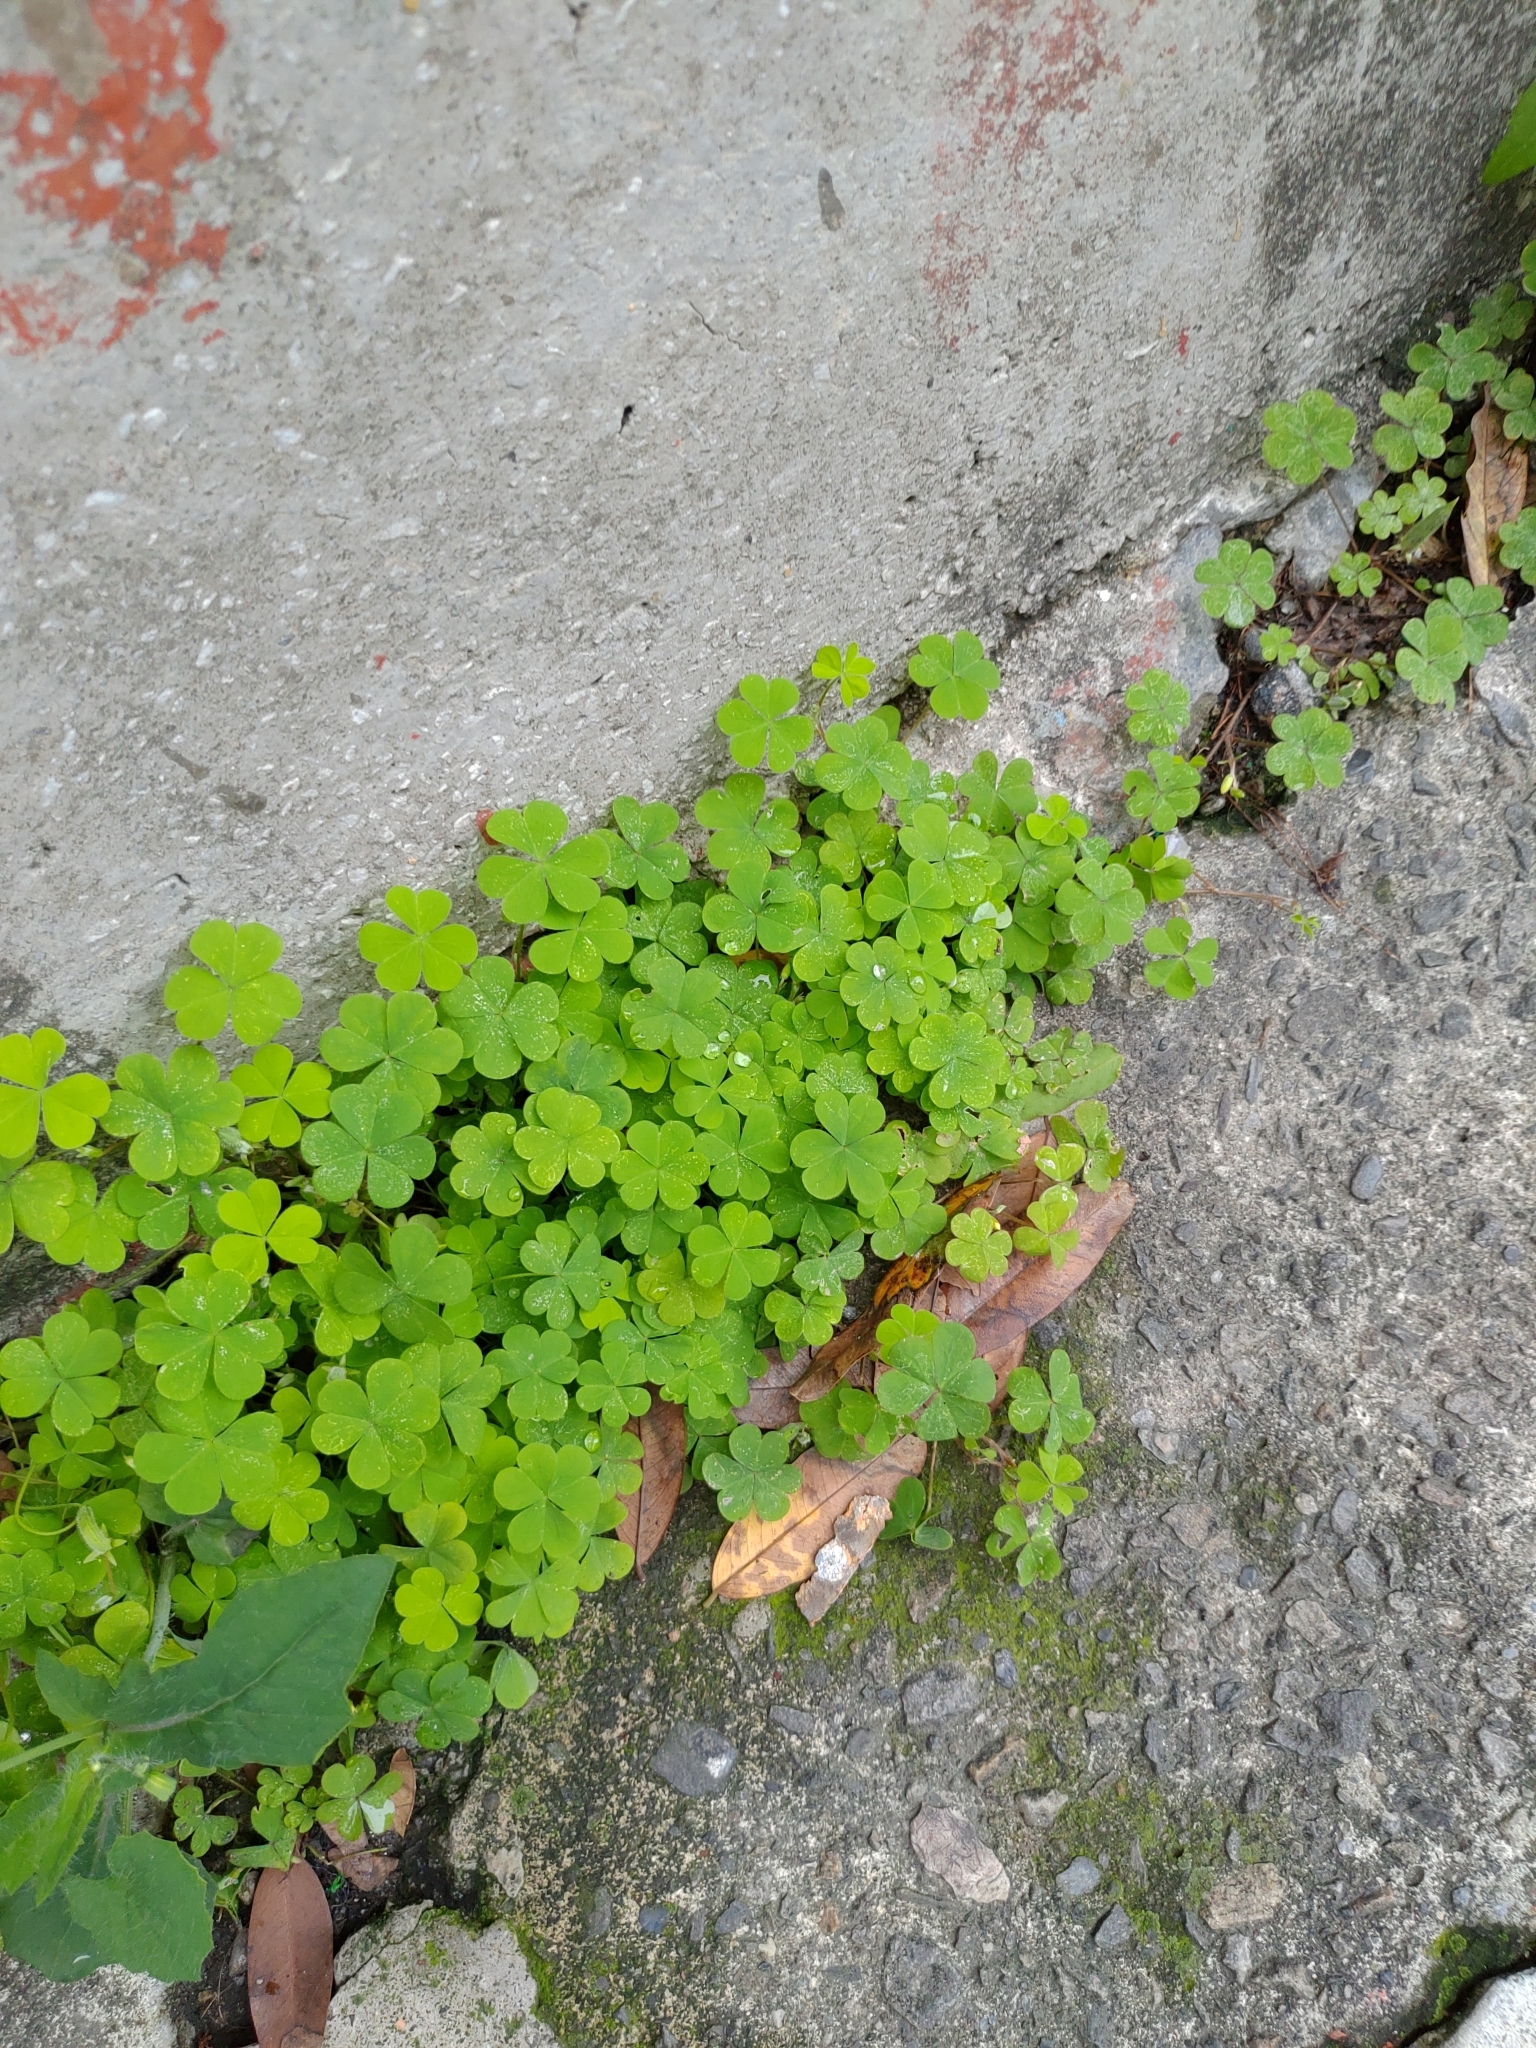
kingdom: Plantae
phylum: Tracheophyta
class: Magnoliopsida
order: Oxalidales
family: Oxalidaceae
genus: Oxalis
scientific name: Oxalis corniculata
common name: Procumbent yellow-sorrel
